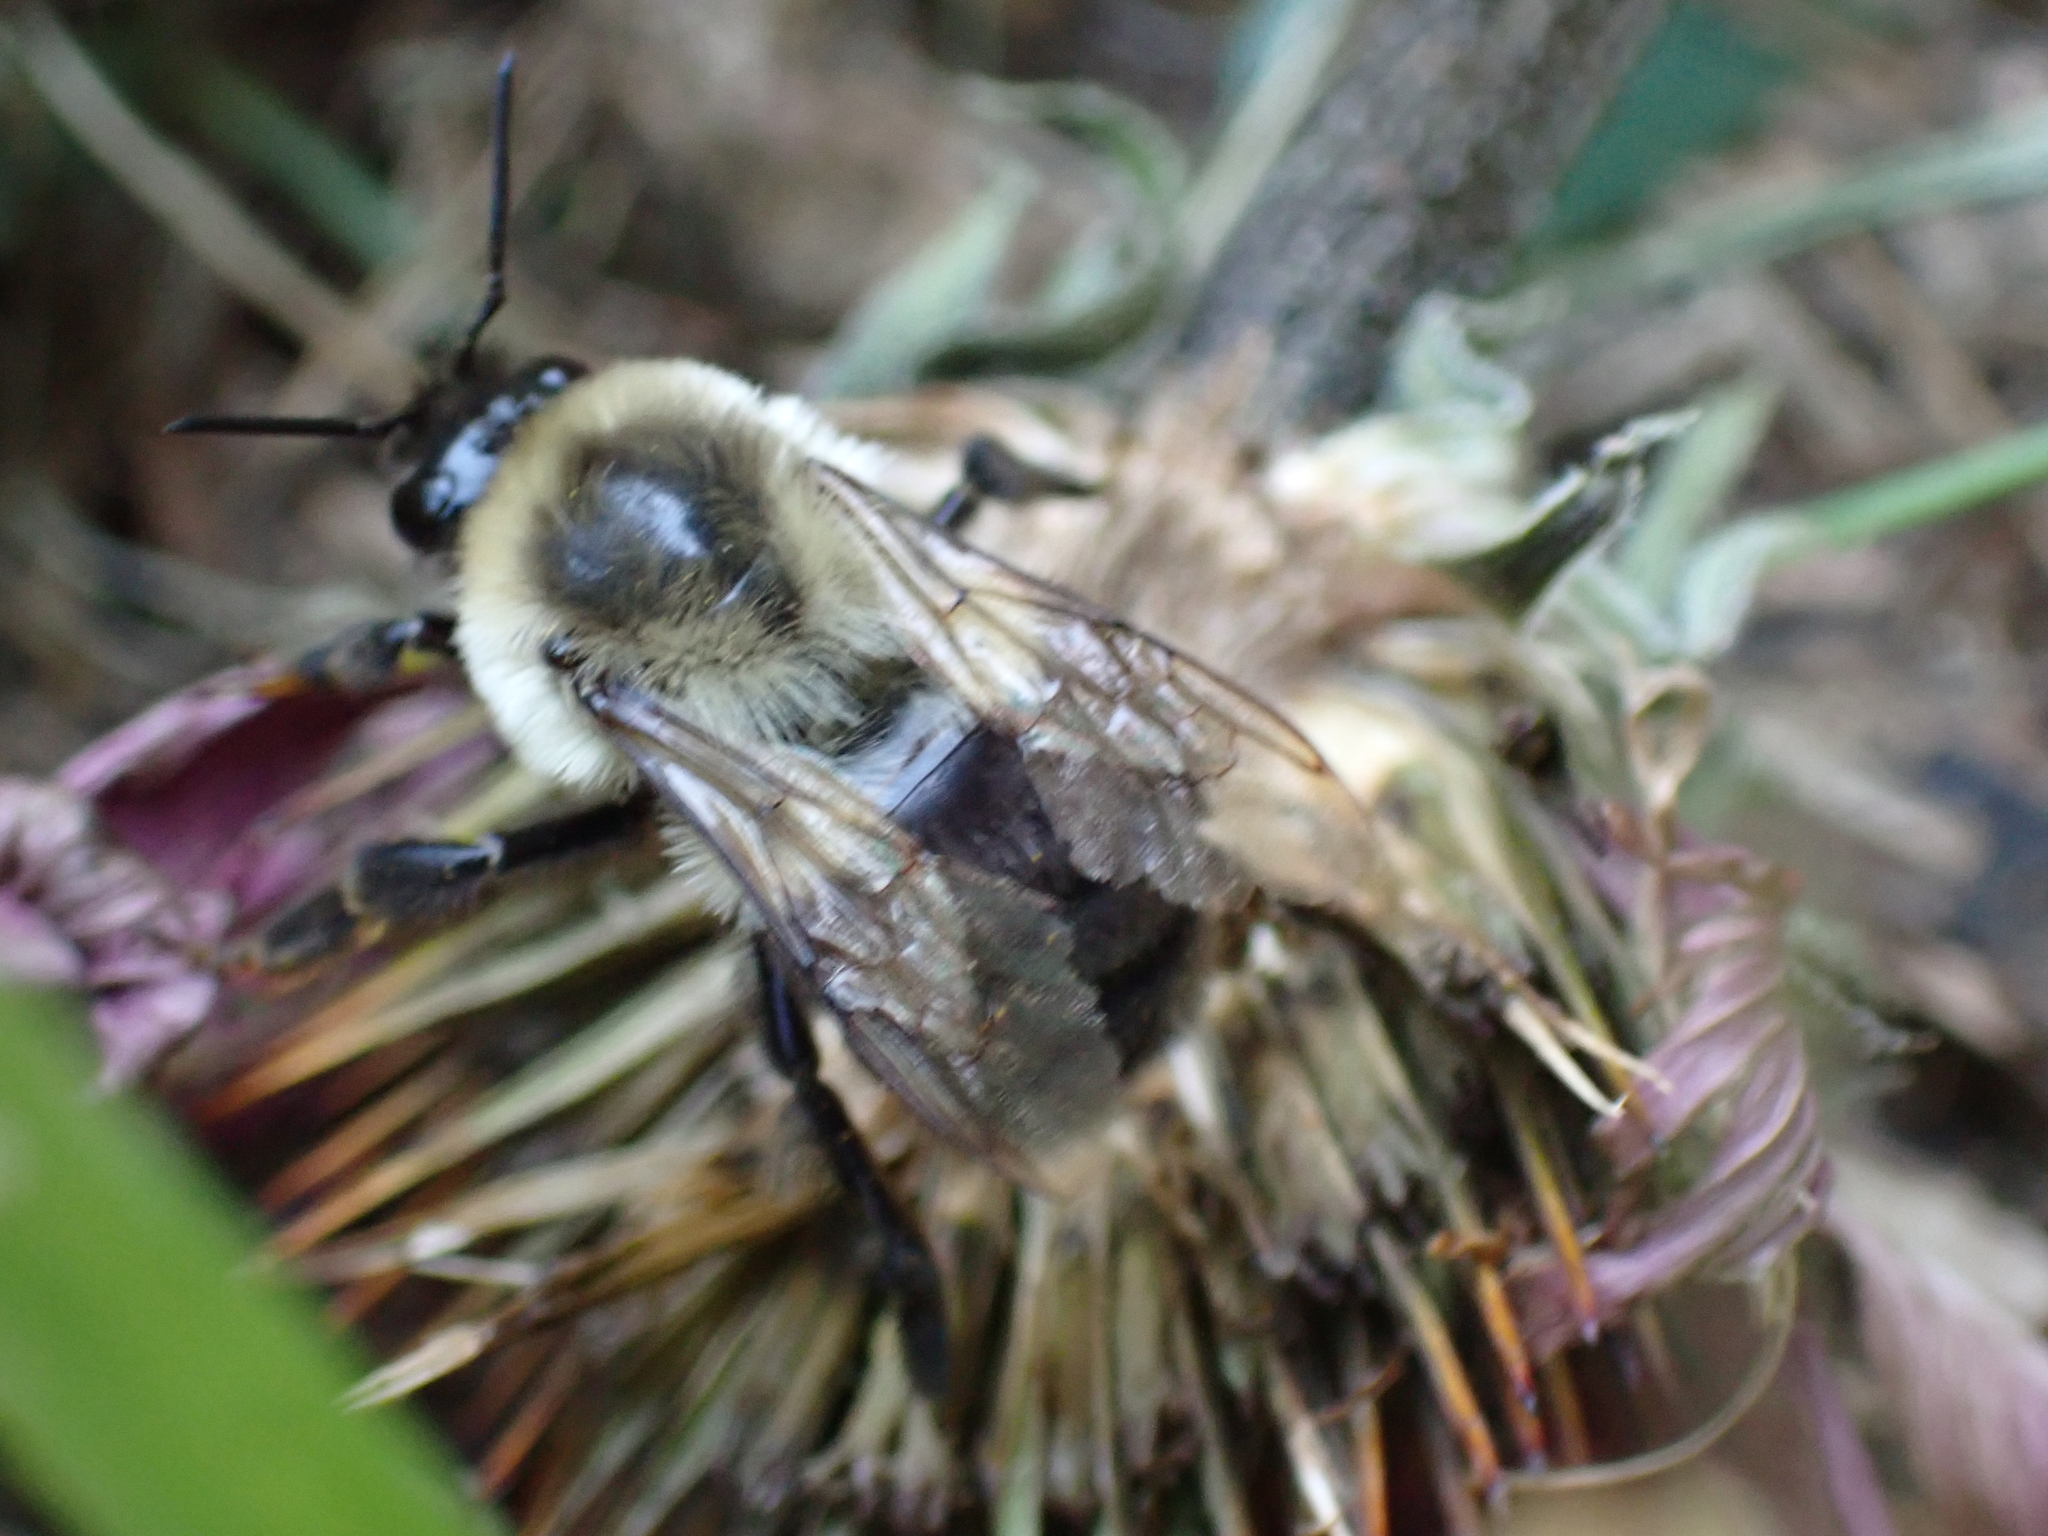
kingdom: Animalia
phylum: Arthropoda
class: Insecta
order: Hymenoptera
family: Apidae
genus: Bombus
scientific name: Bombus impatiens
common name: Common eastern bumble bee
